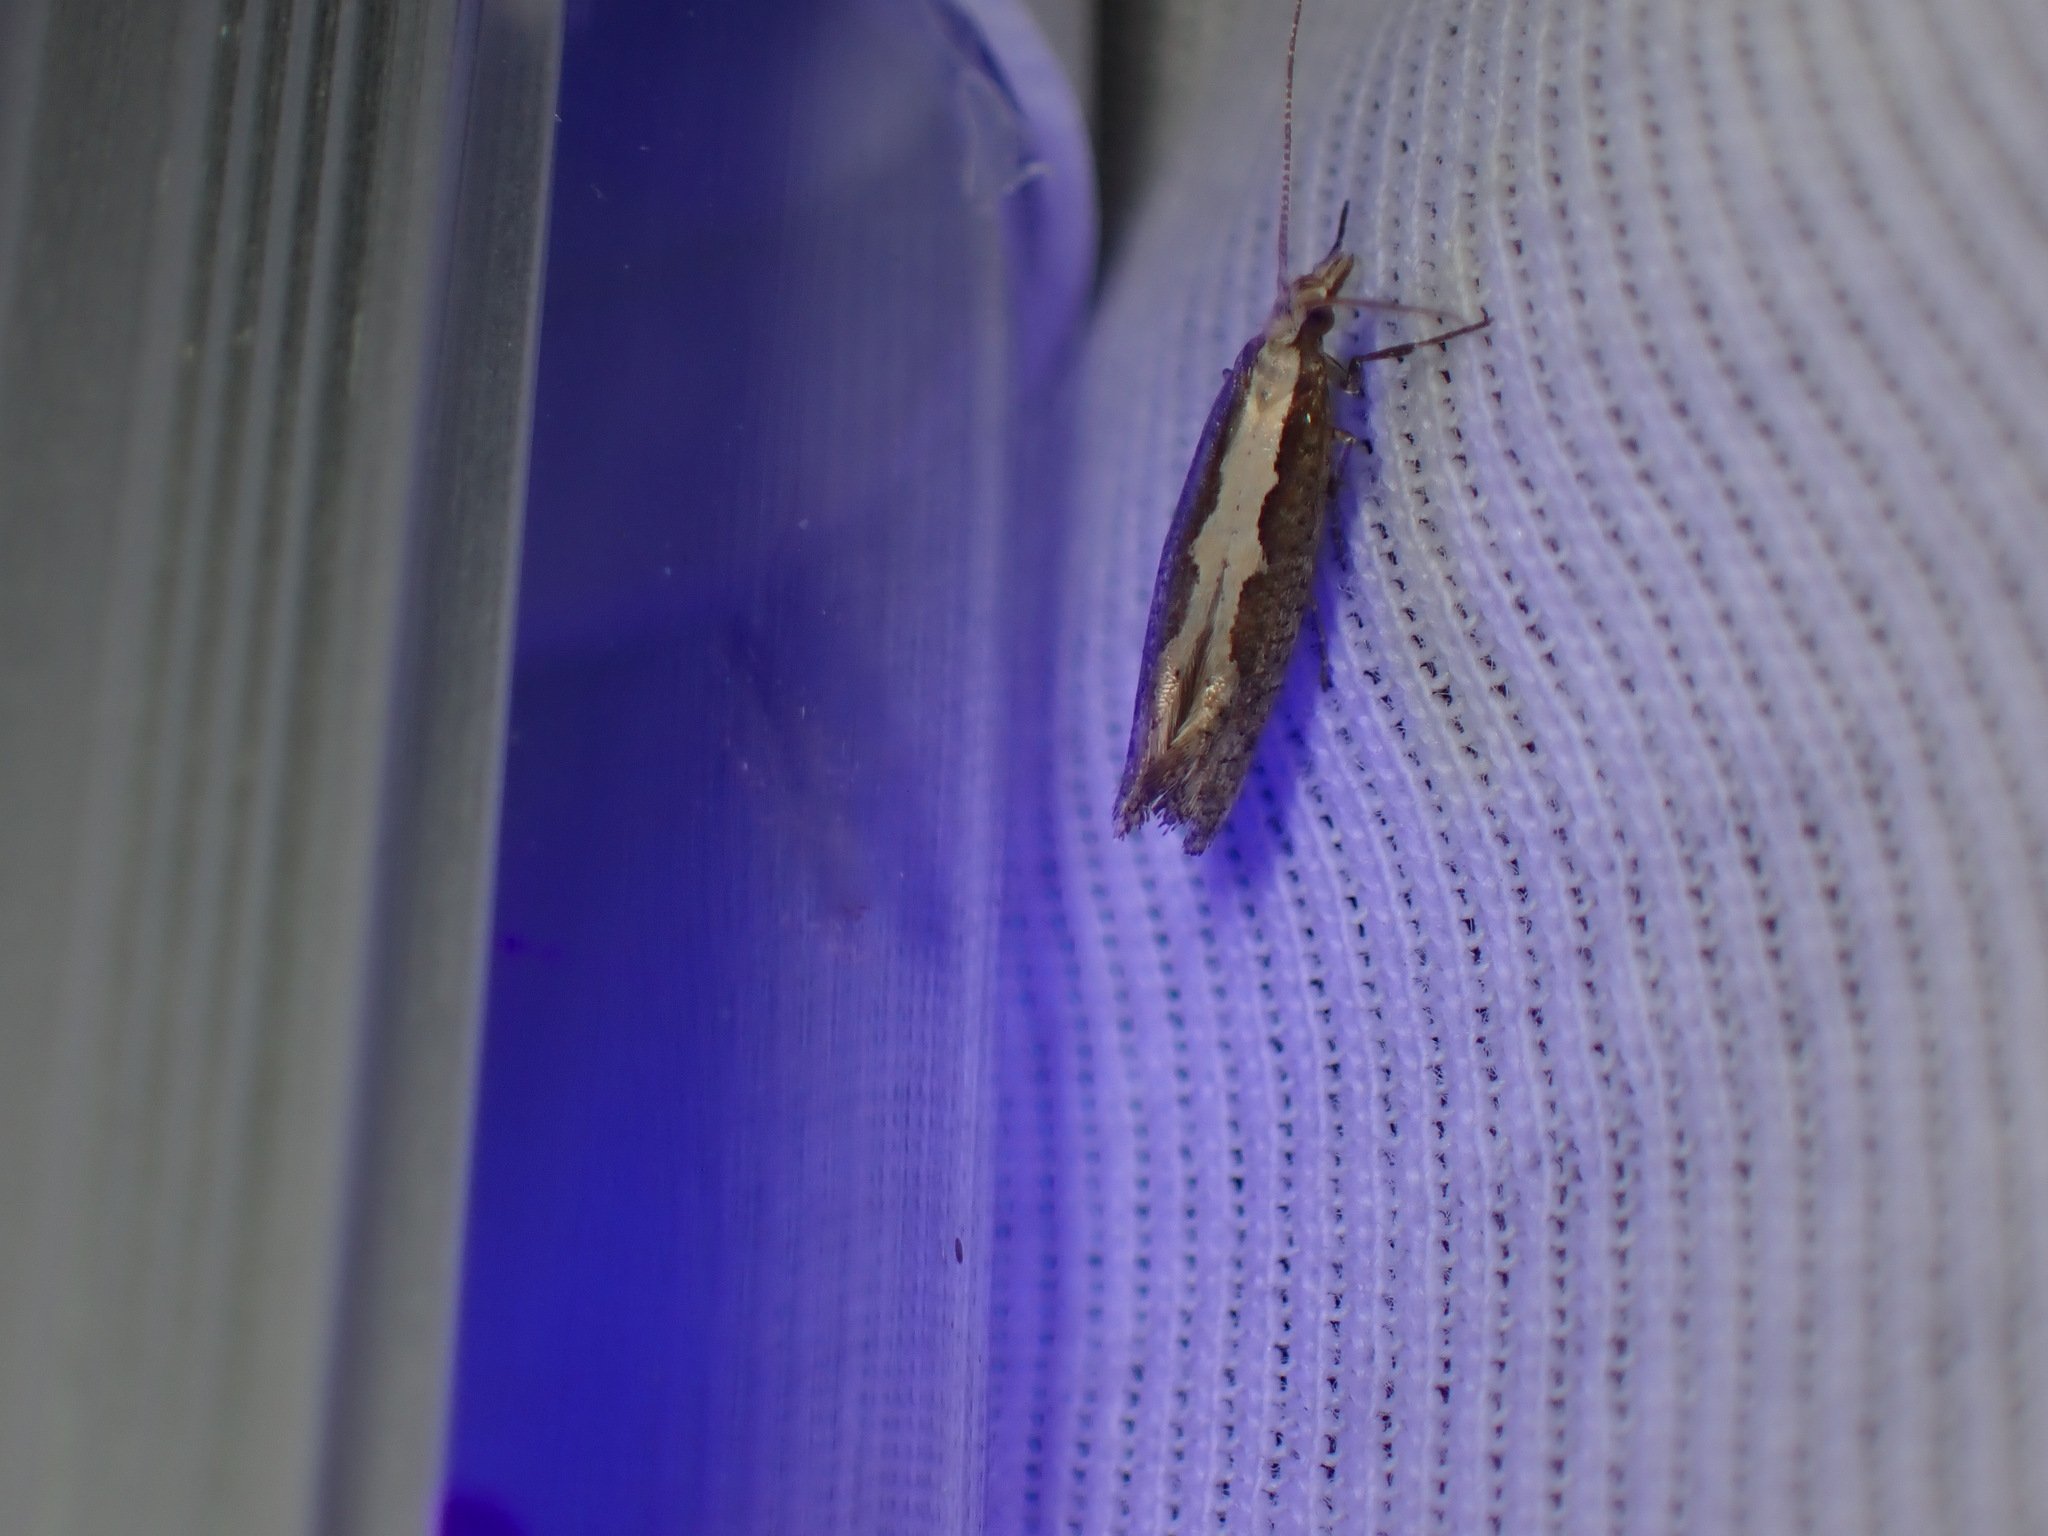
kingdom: Animalia
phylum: Arthropoda
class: Insecta
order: Lepidoptera
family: Plutellidae
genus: Plutella
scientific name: Plutella xylostella
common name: Diamond-back moth
